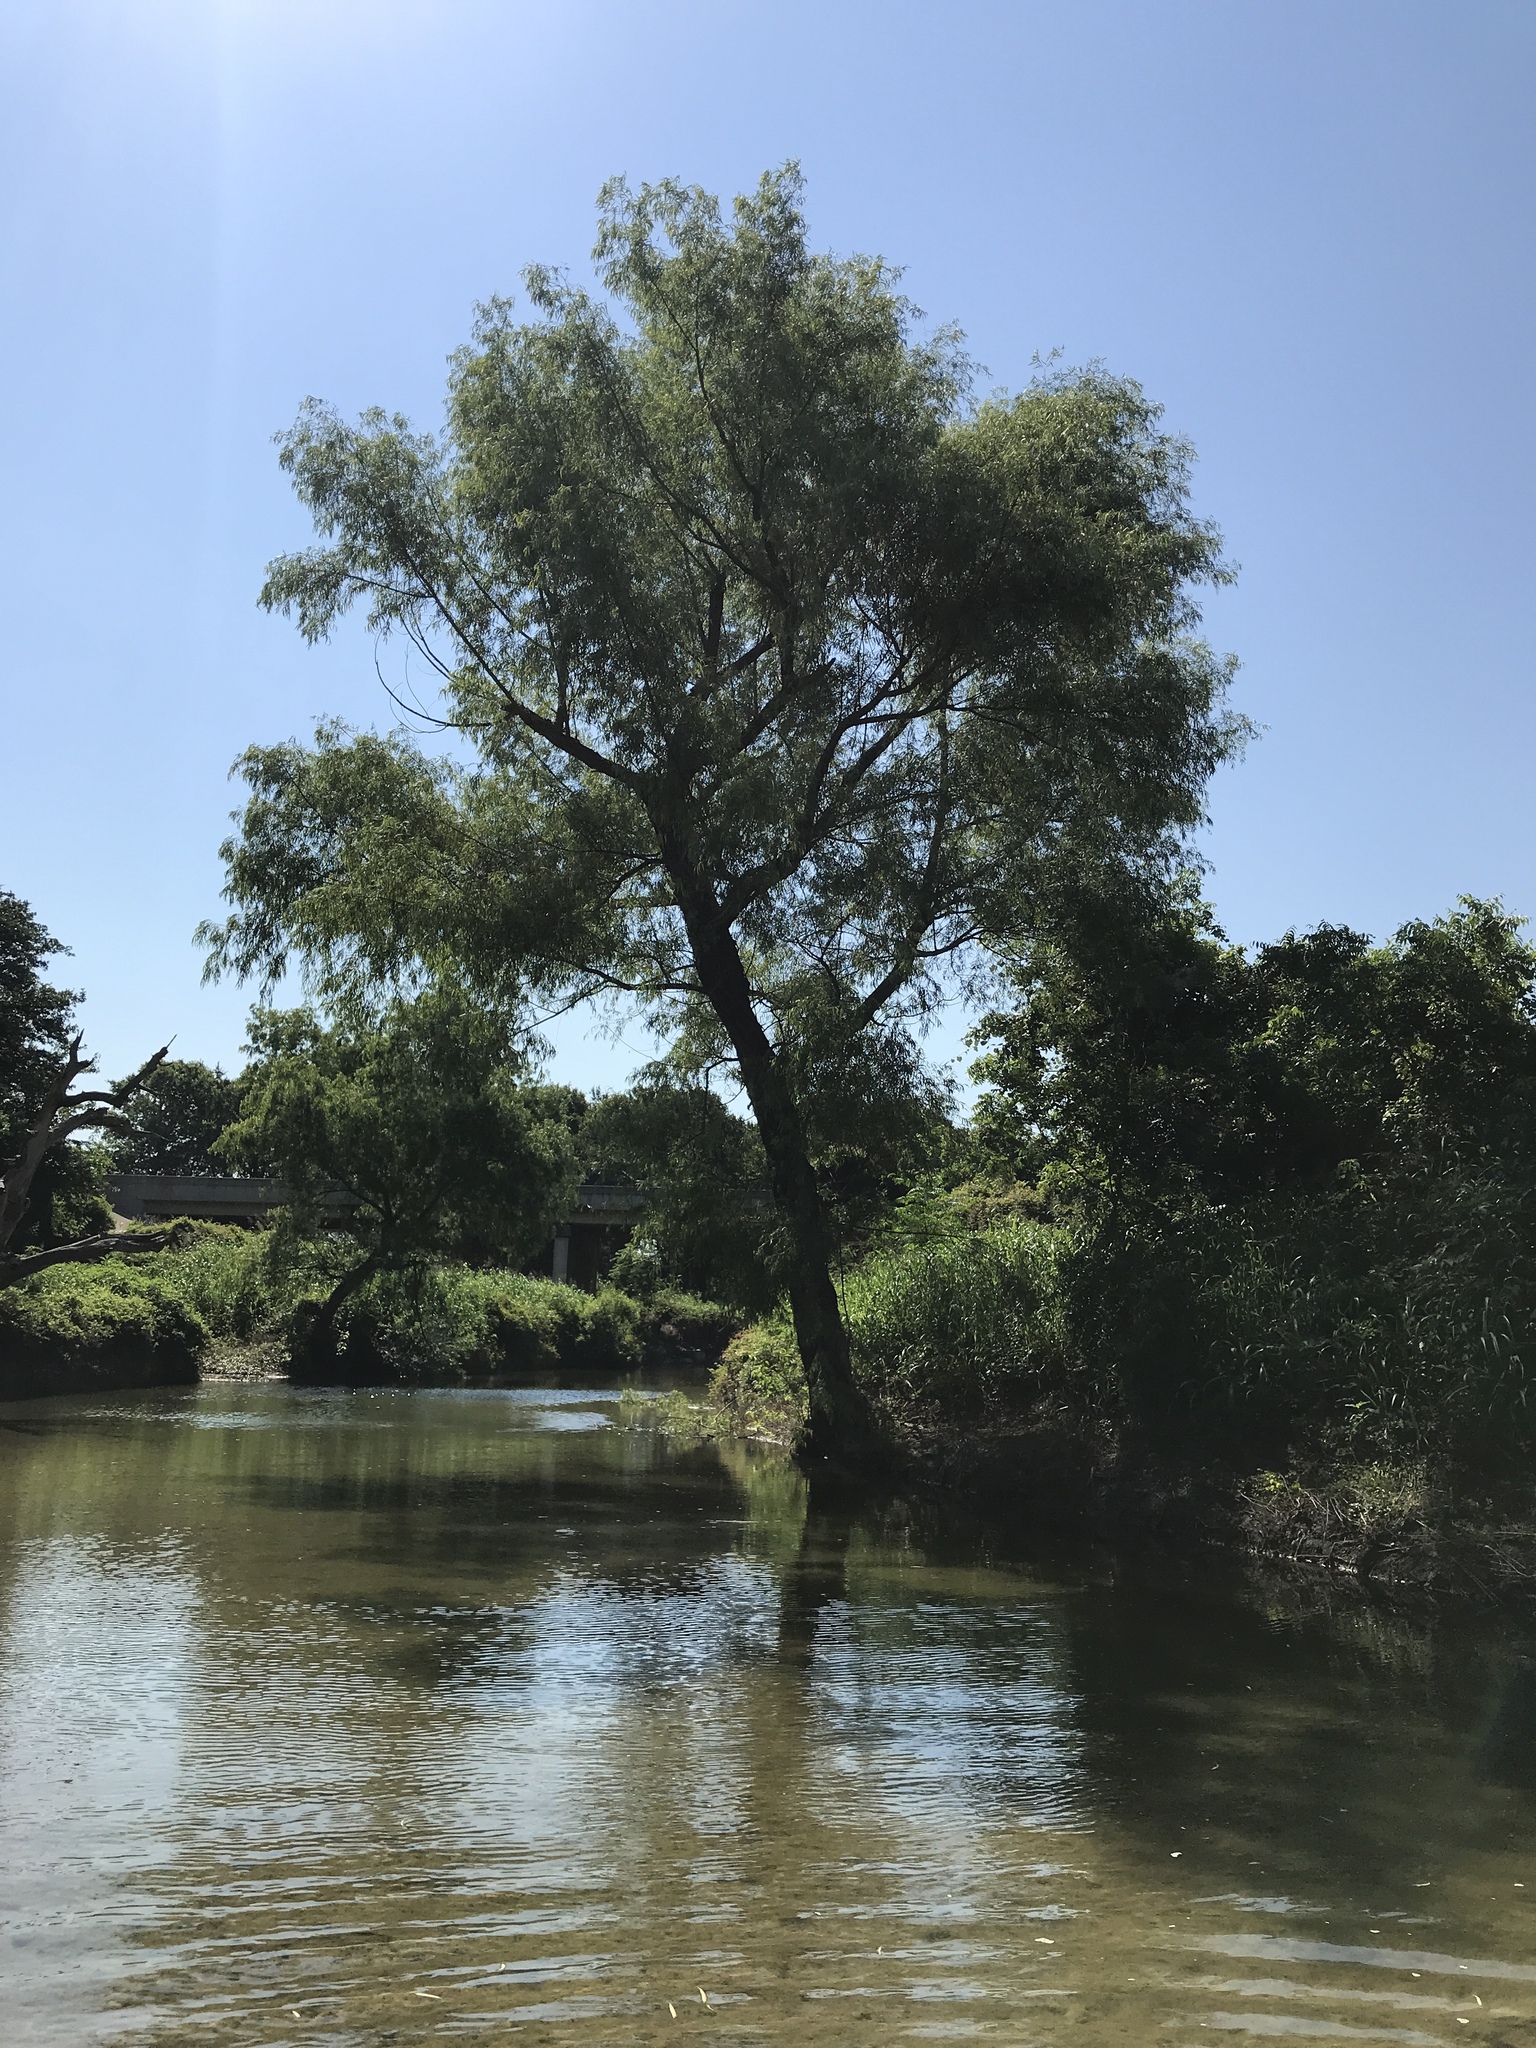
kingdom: Plantae
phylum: Tracheophyta
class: Magnoliopsida
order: Malpighiales
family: Salicaceae
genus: Salix
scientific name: Salix nigra
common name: Black willow
